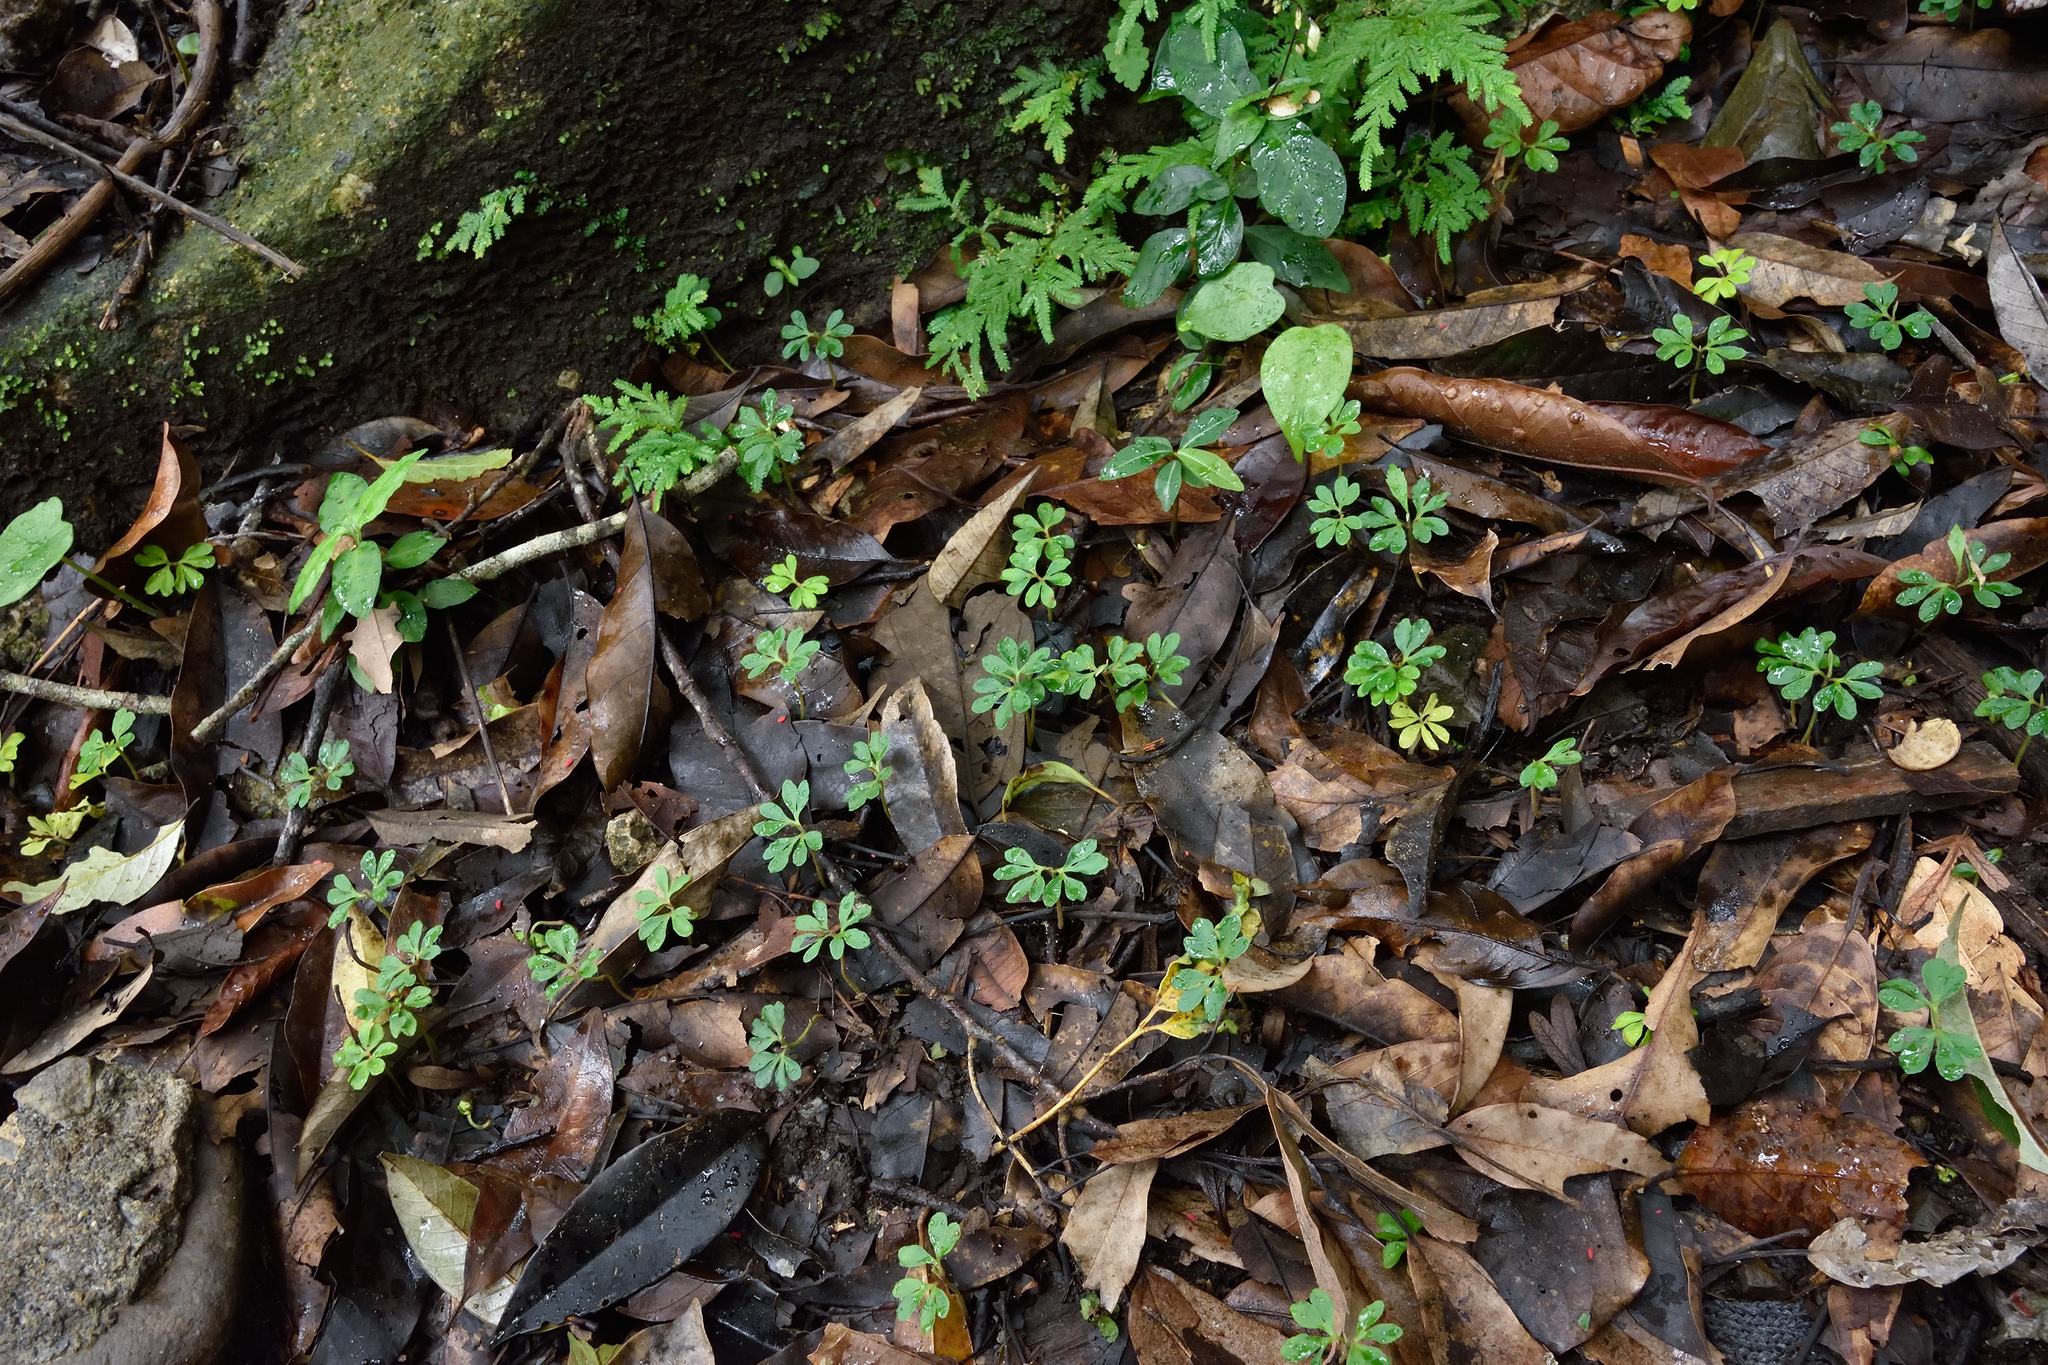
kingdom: Plantae
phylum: Tracheophyta
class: Magnoliopsida
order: Fagales
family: Juglandaceae
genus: Engelhardia
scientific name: Engelhardia roxburghiana
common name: Golden malay beam
